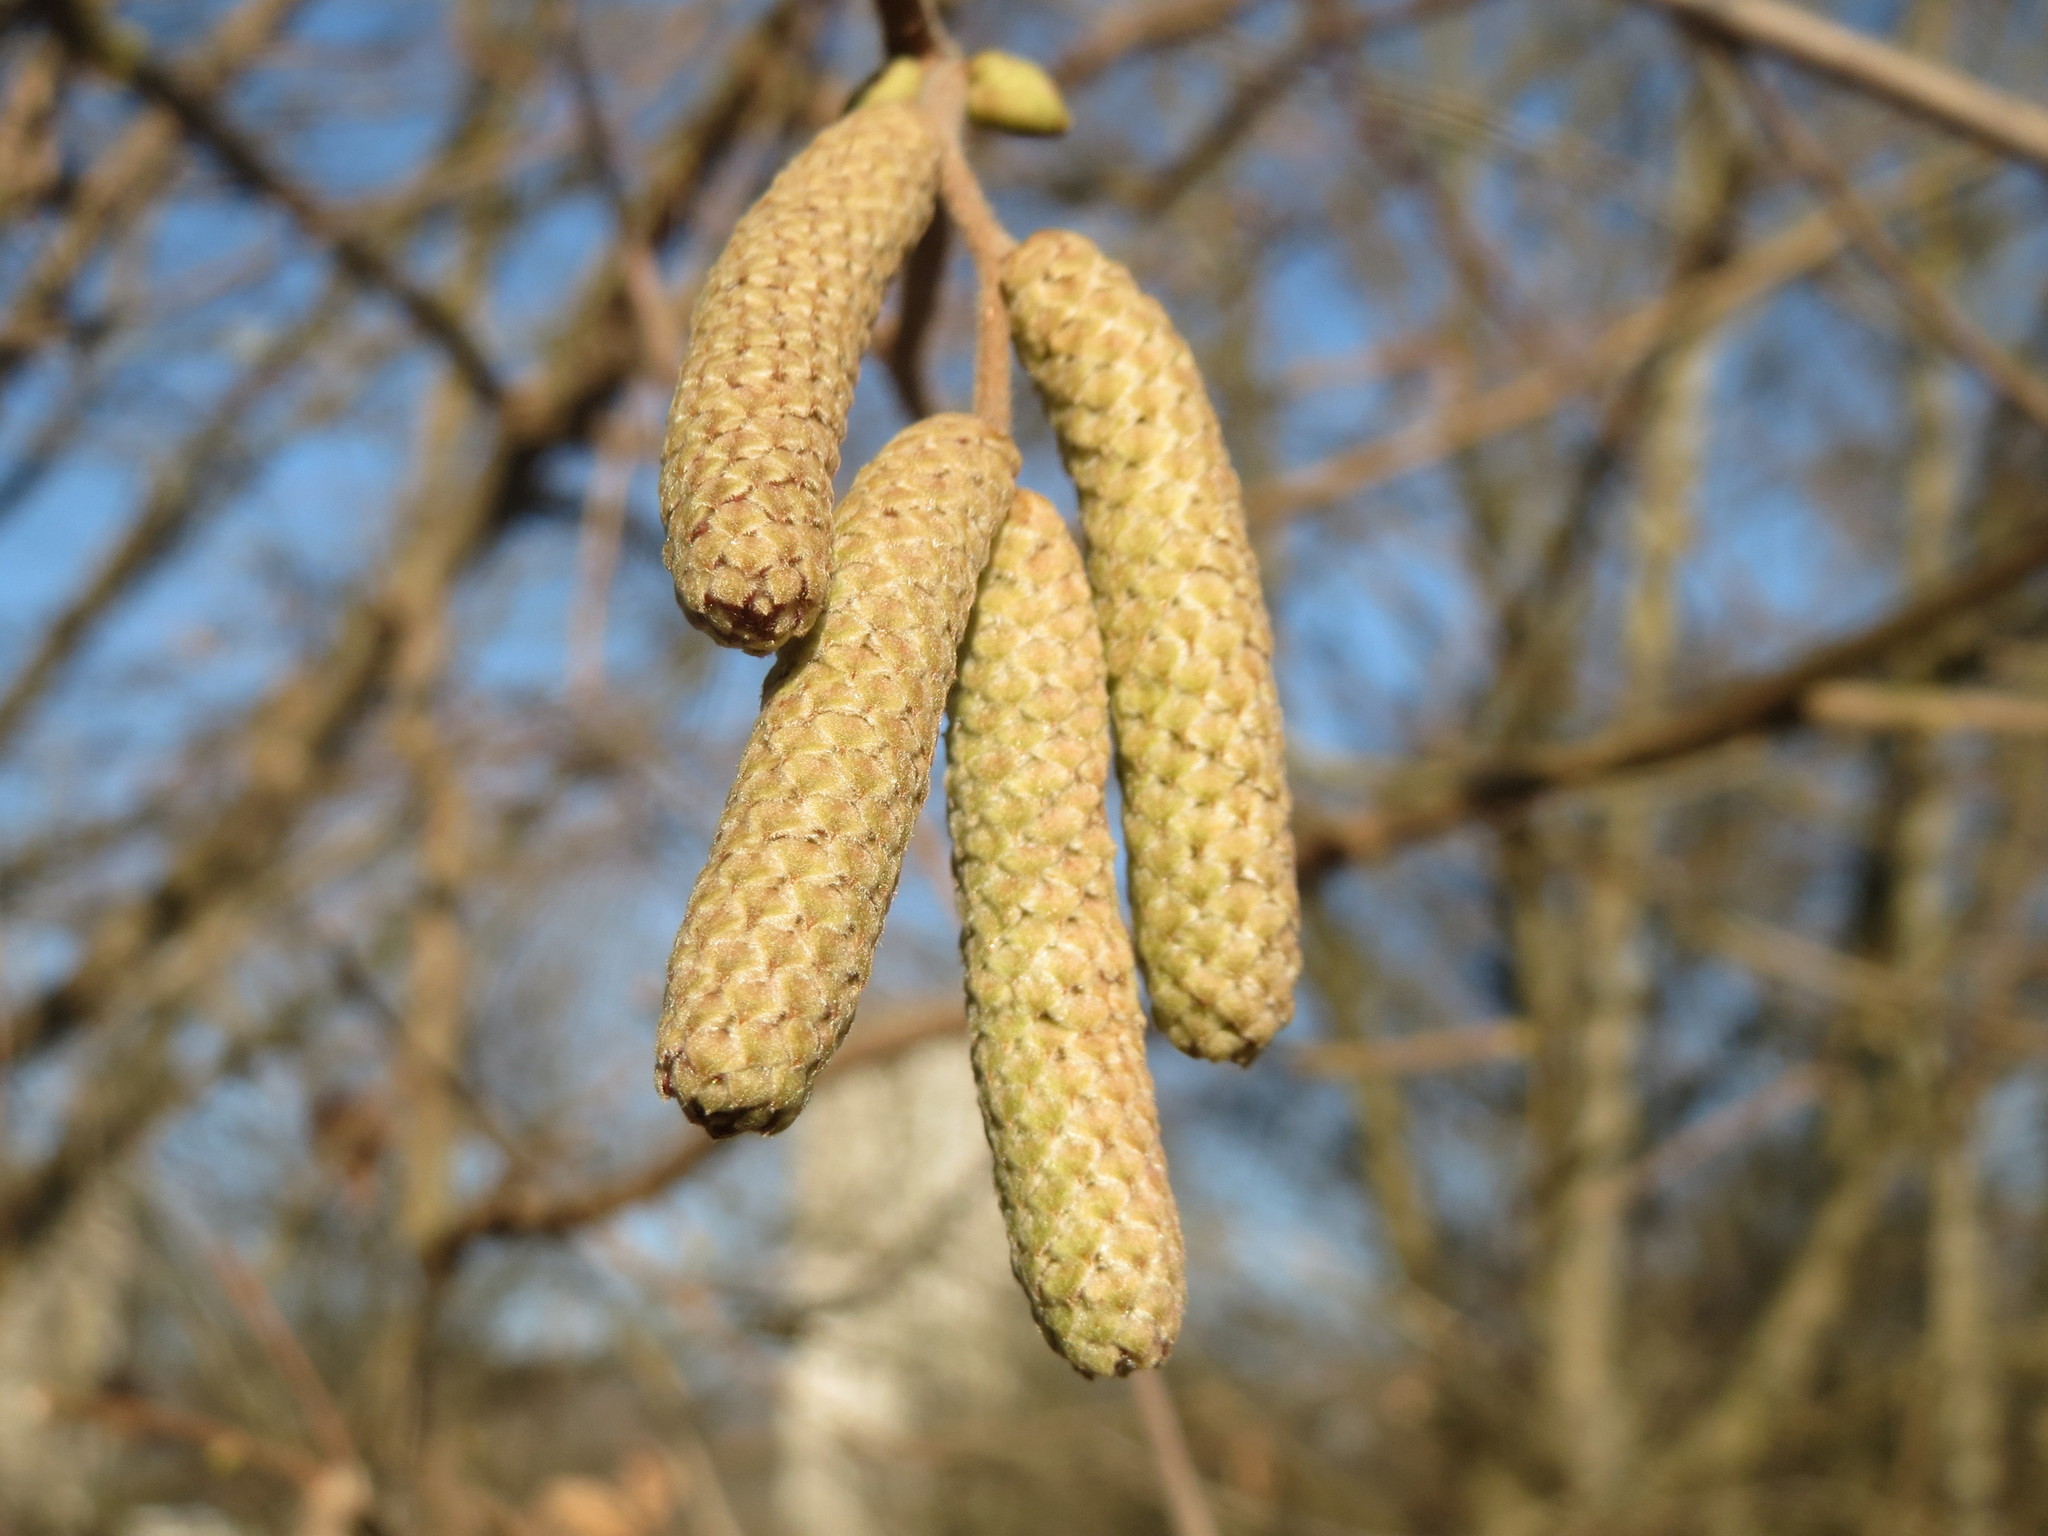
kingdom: Plantae
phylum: Tracheophyta
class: Magnoliopsida
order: Fagales
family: Betulaceae
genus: Corylus
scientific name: Corylus avellana
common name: European hazel
